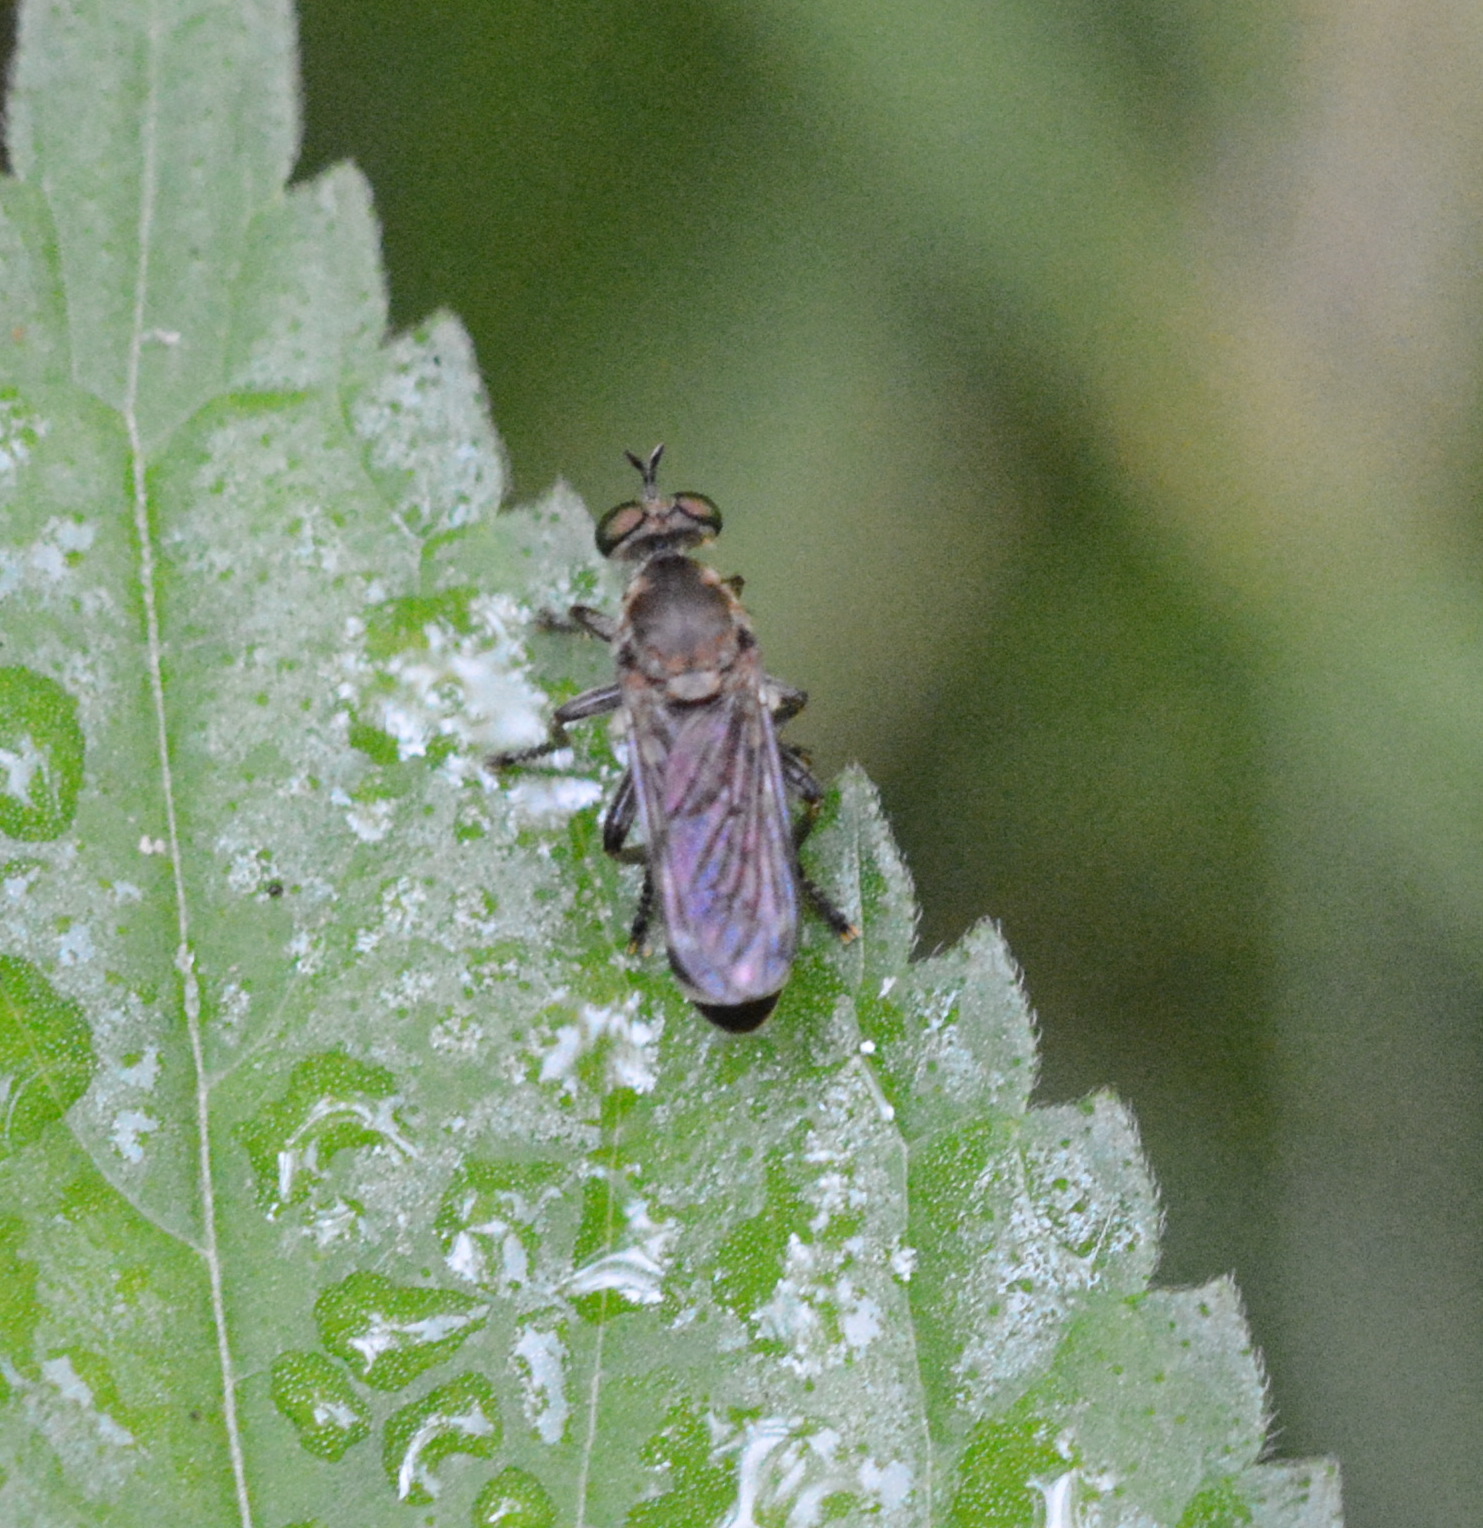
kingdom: Animalia
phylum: Arthropoda
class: Insecta
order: Diptera
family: Asilidae
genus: Psilocurus
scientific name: Psilocurus birdi
